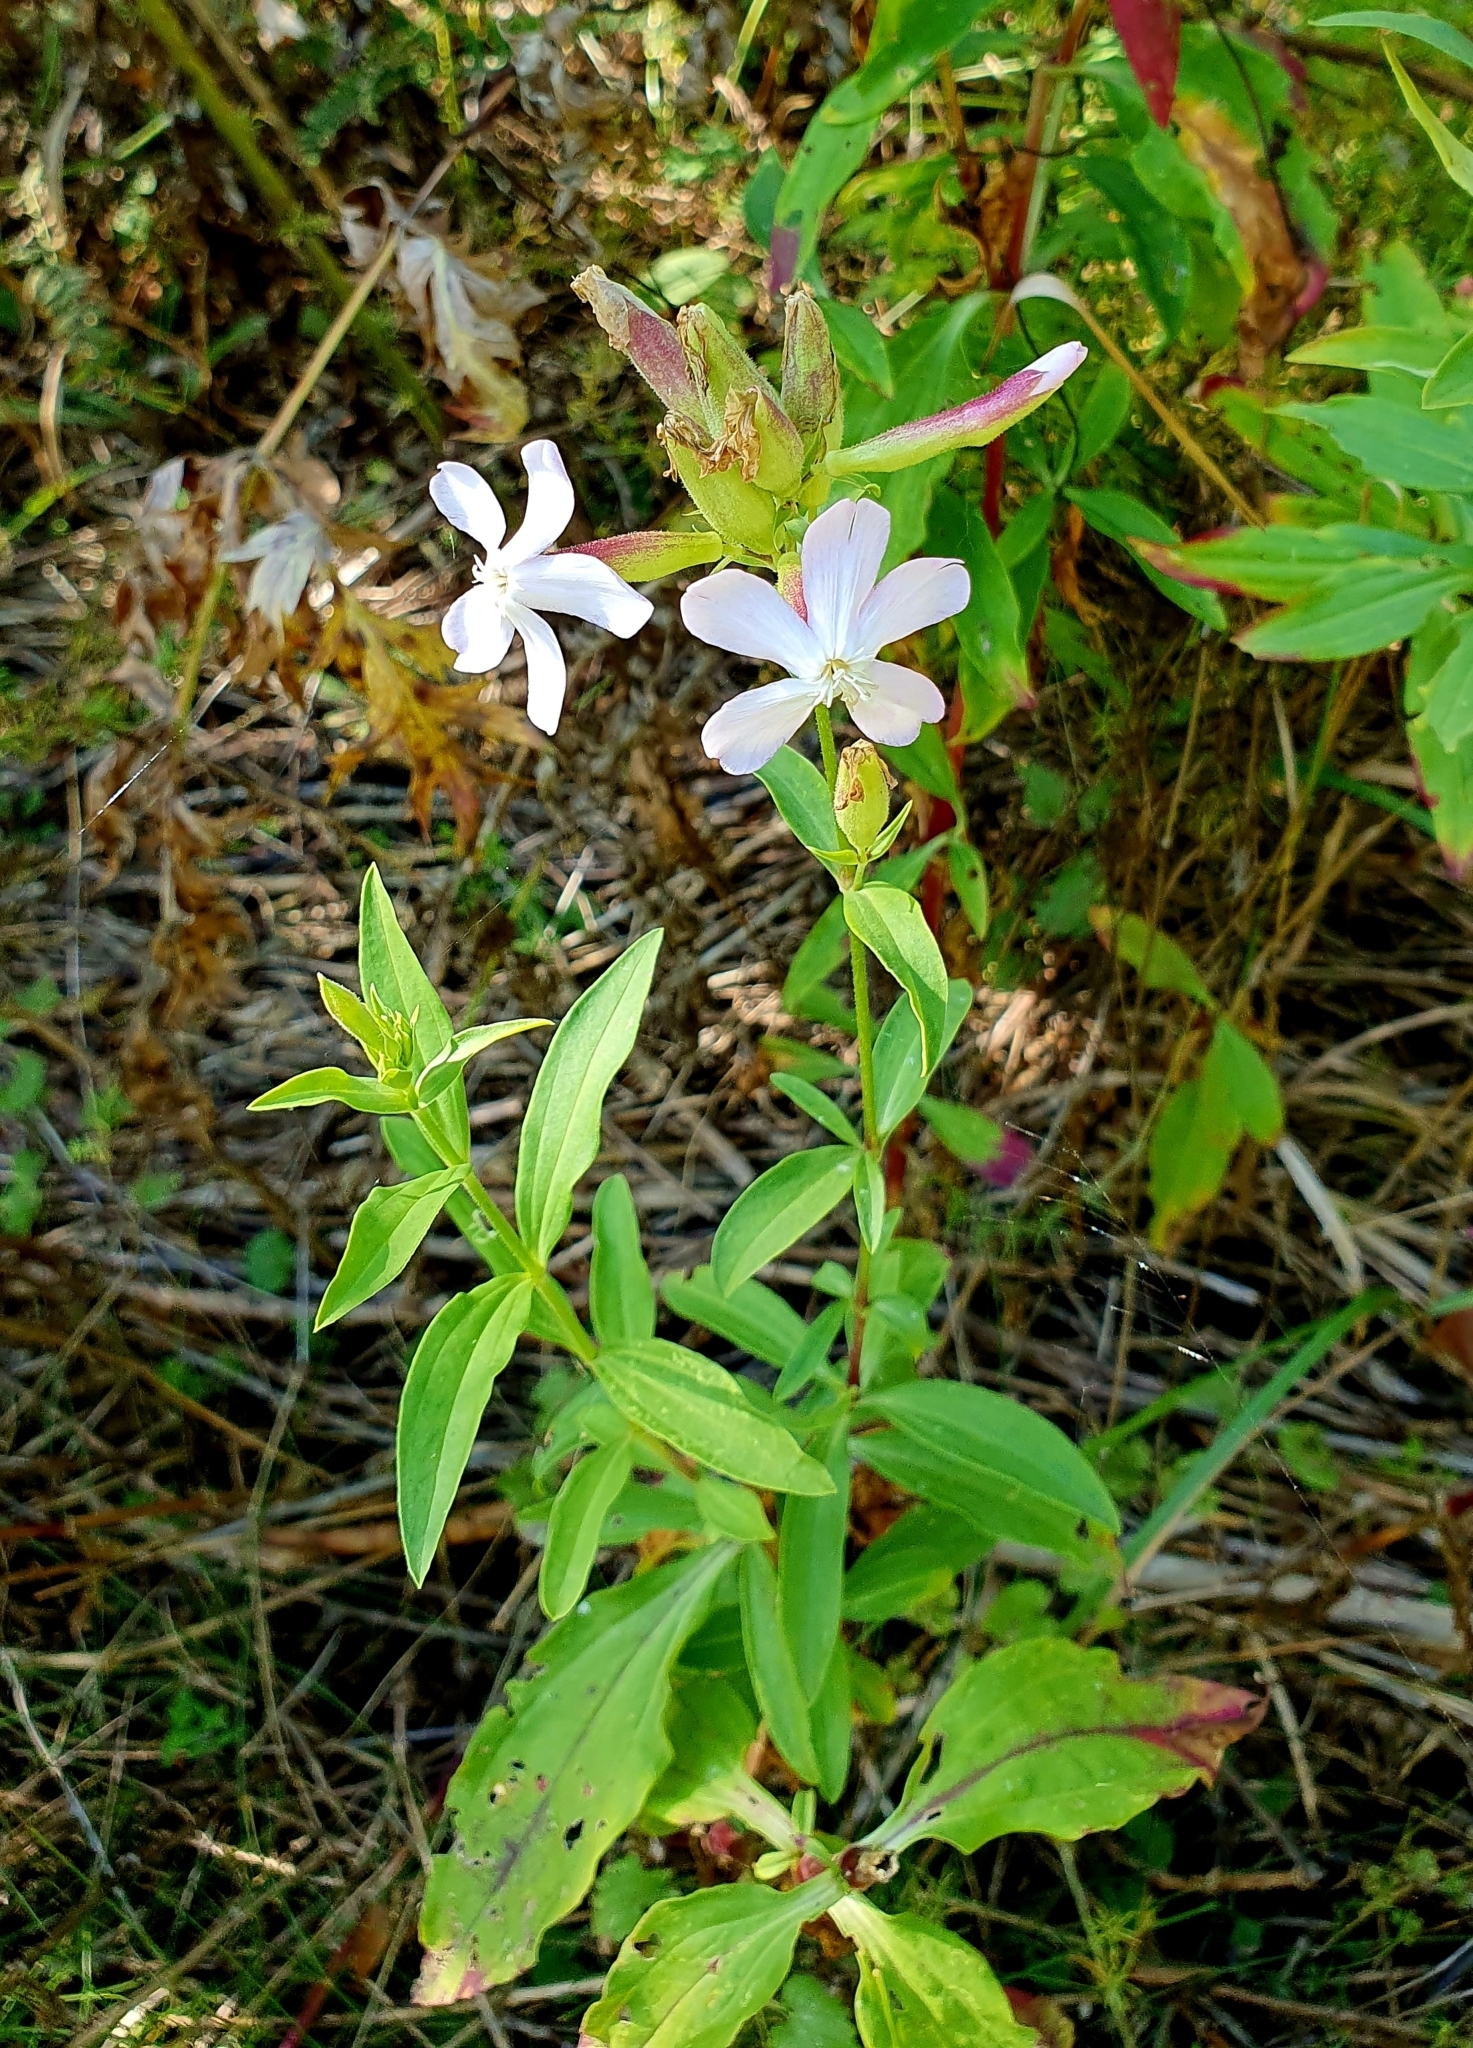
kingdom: Plantae
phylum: Tracheophyta
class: Magnoliopsida
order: Caryophyllales
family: Caryophyllaceae
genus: Saponaria
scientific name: Saponaria officinalis
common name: Soapwort
